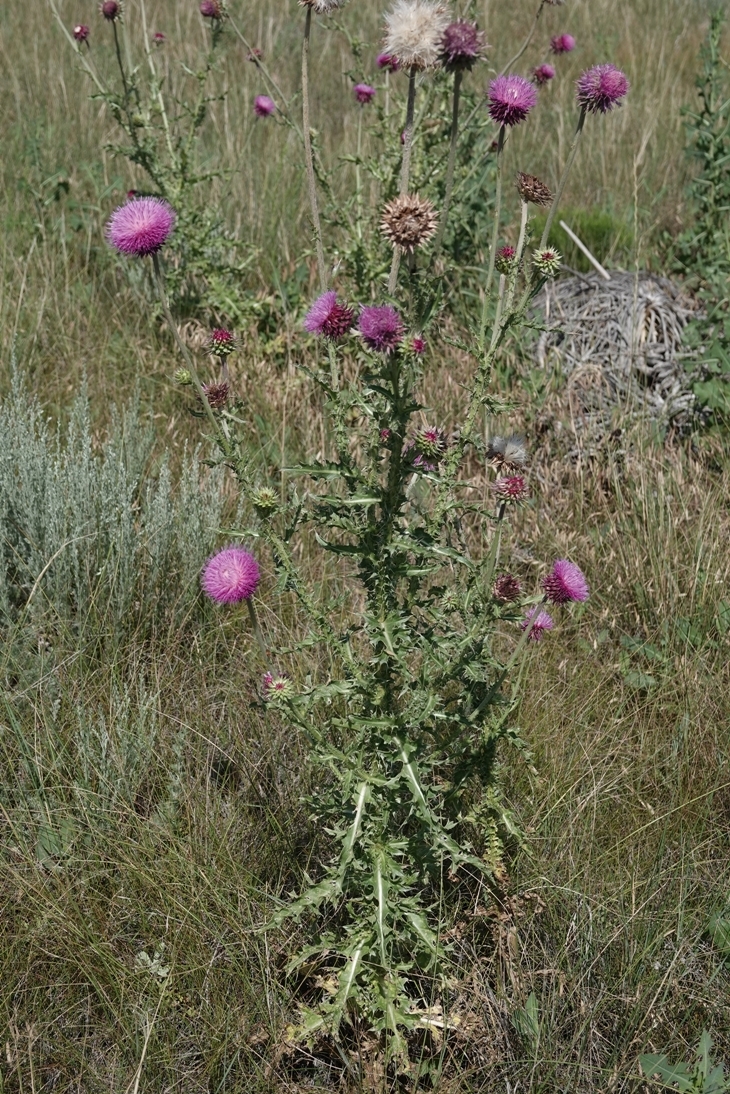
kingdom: Plantae
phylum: Tracheophyta
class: Magnoliopsida
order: Asterales
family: Asteraceae
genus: Carduus
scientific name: Carduus nutans
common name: Musk thistle
